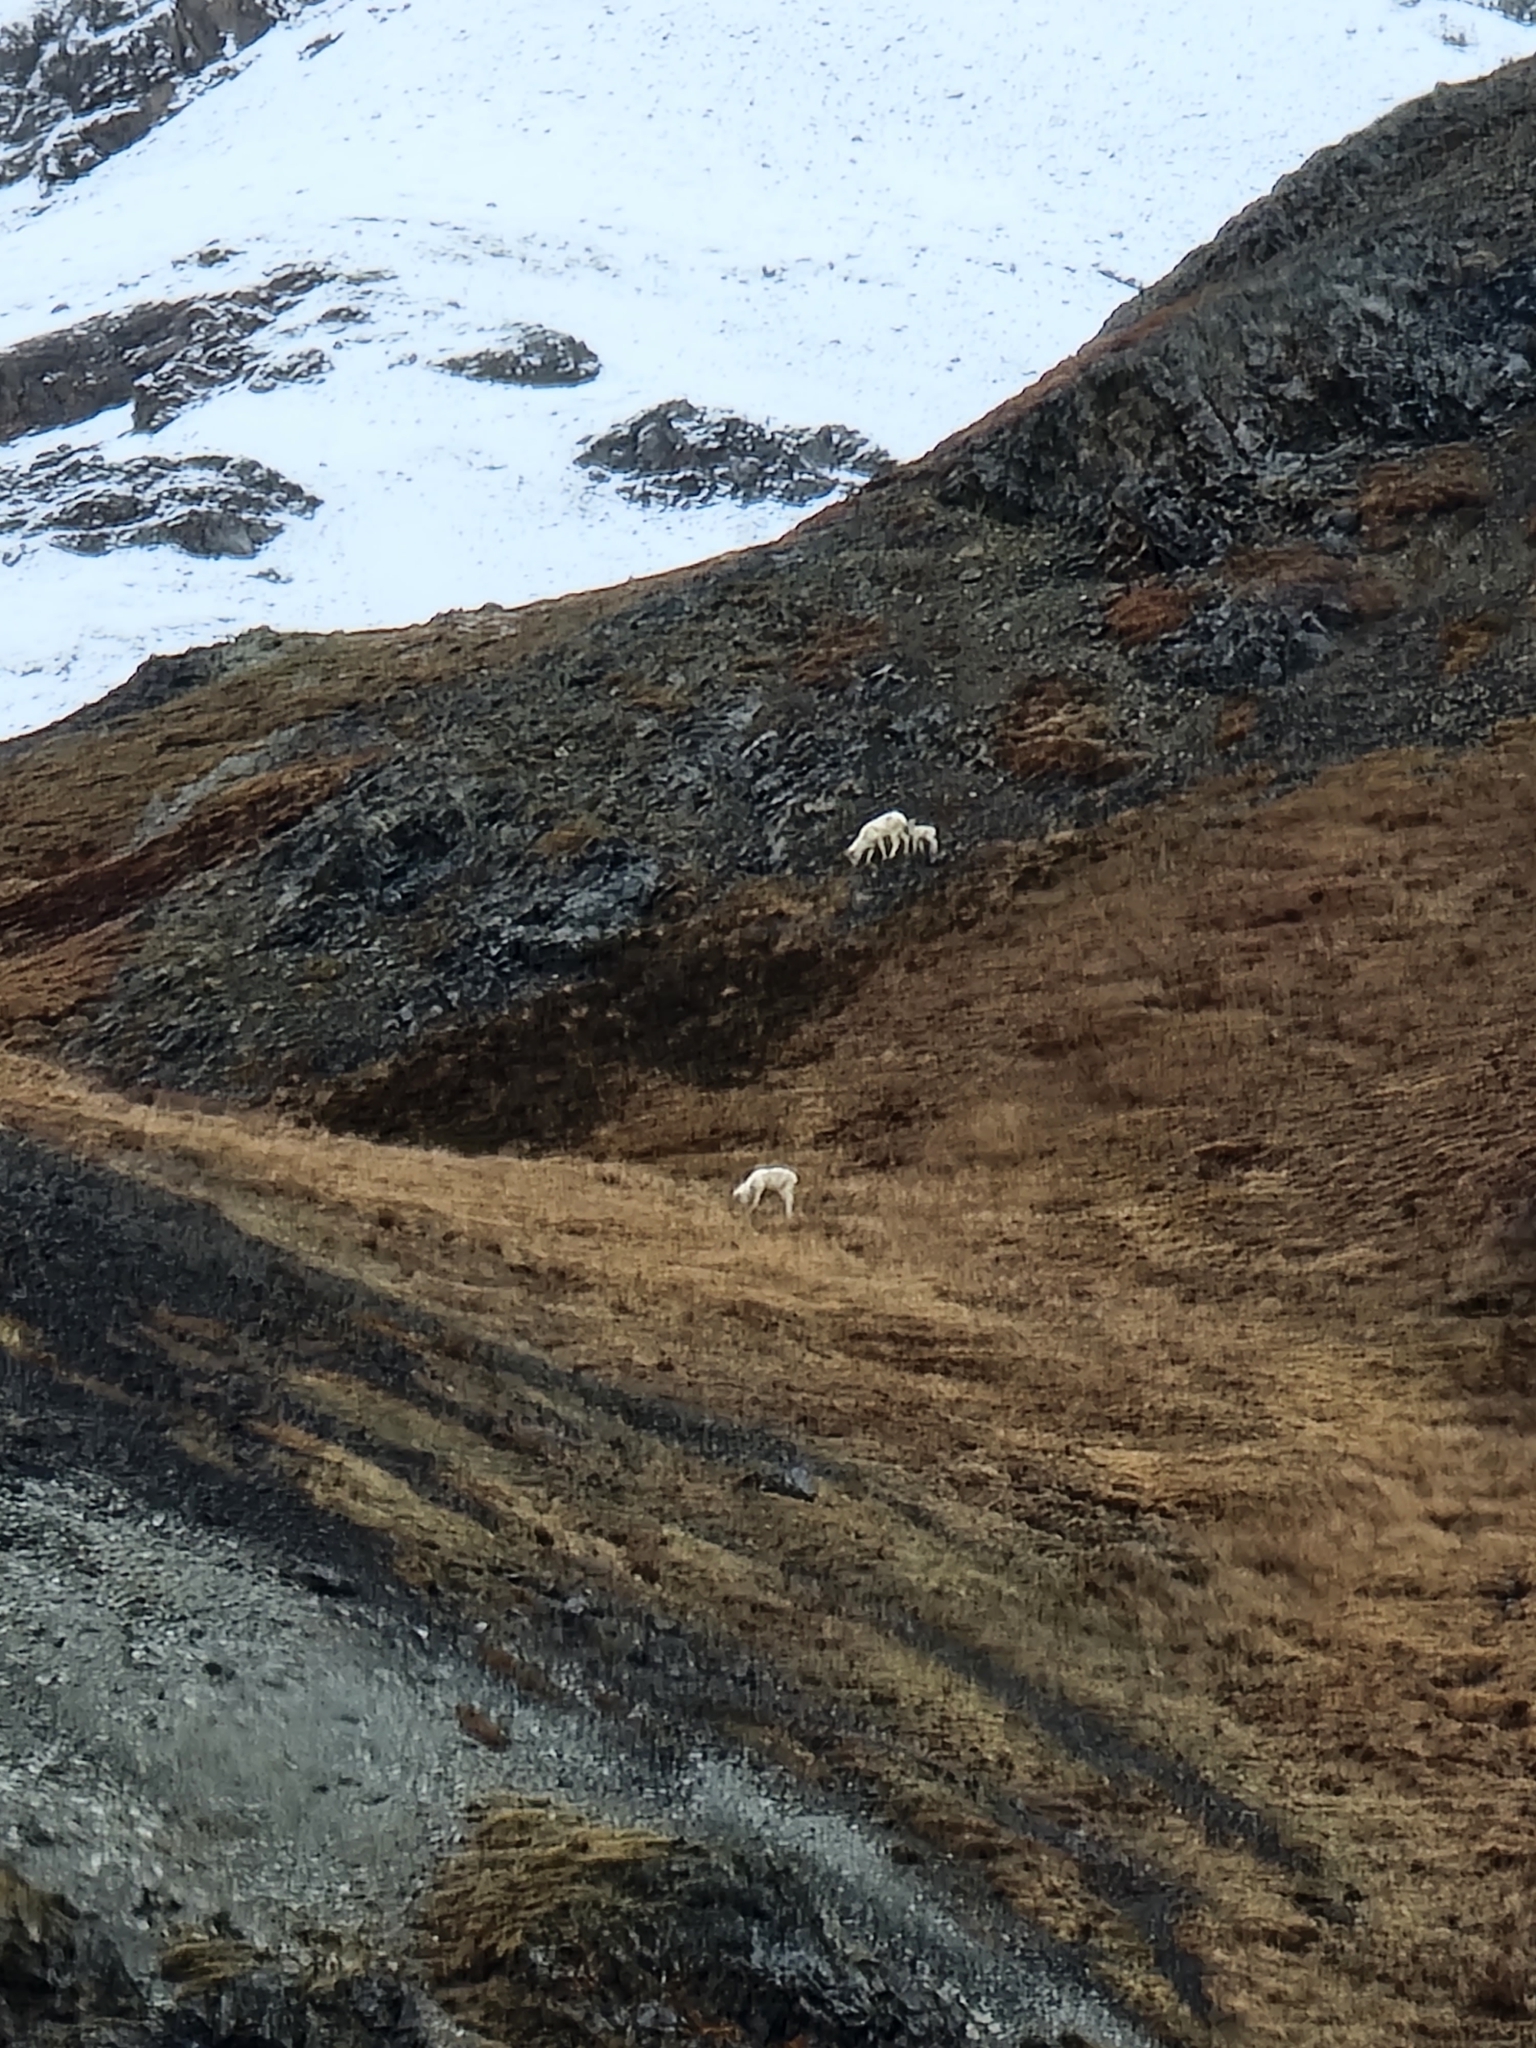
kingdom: Animalia
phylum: Chordata
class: Mammalia
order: Artiodactyla
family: Bovidae
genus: Ovis
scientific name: Ovis dalli
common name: Dall's sheep
